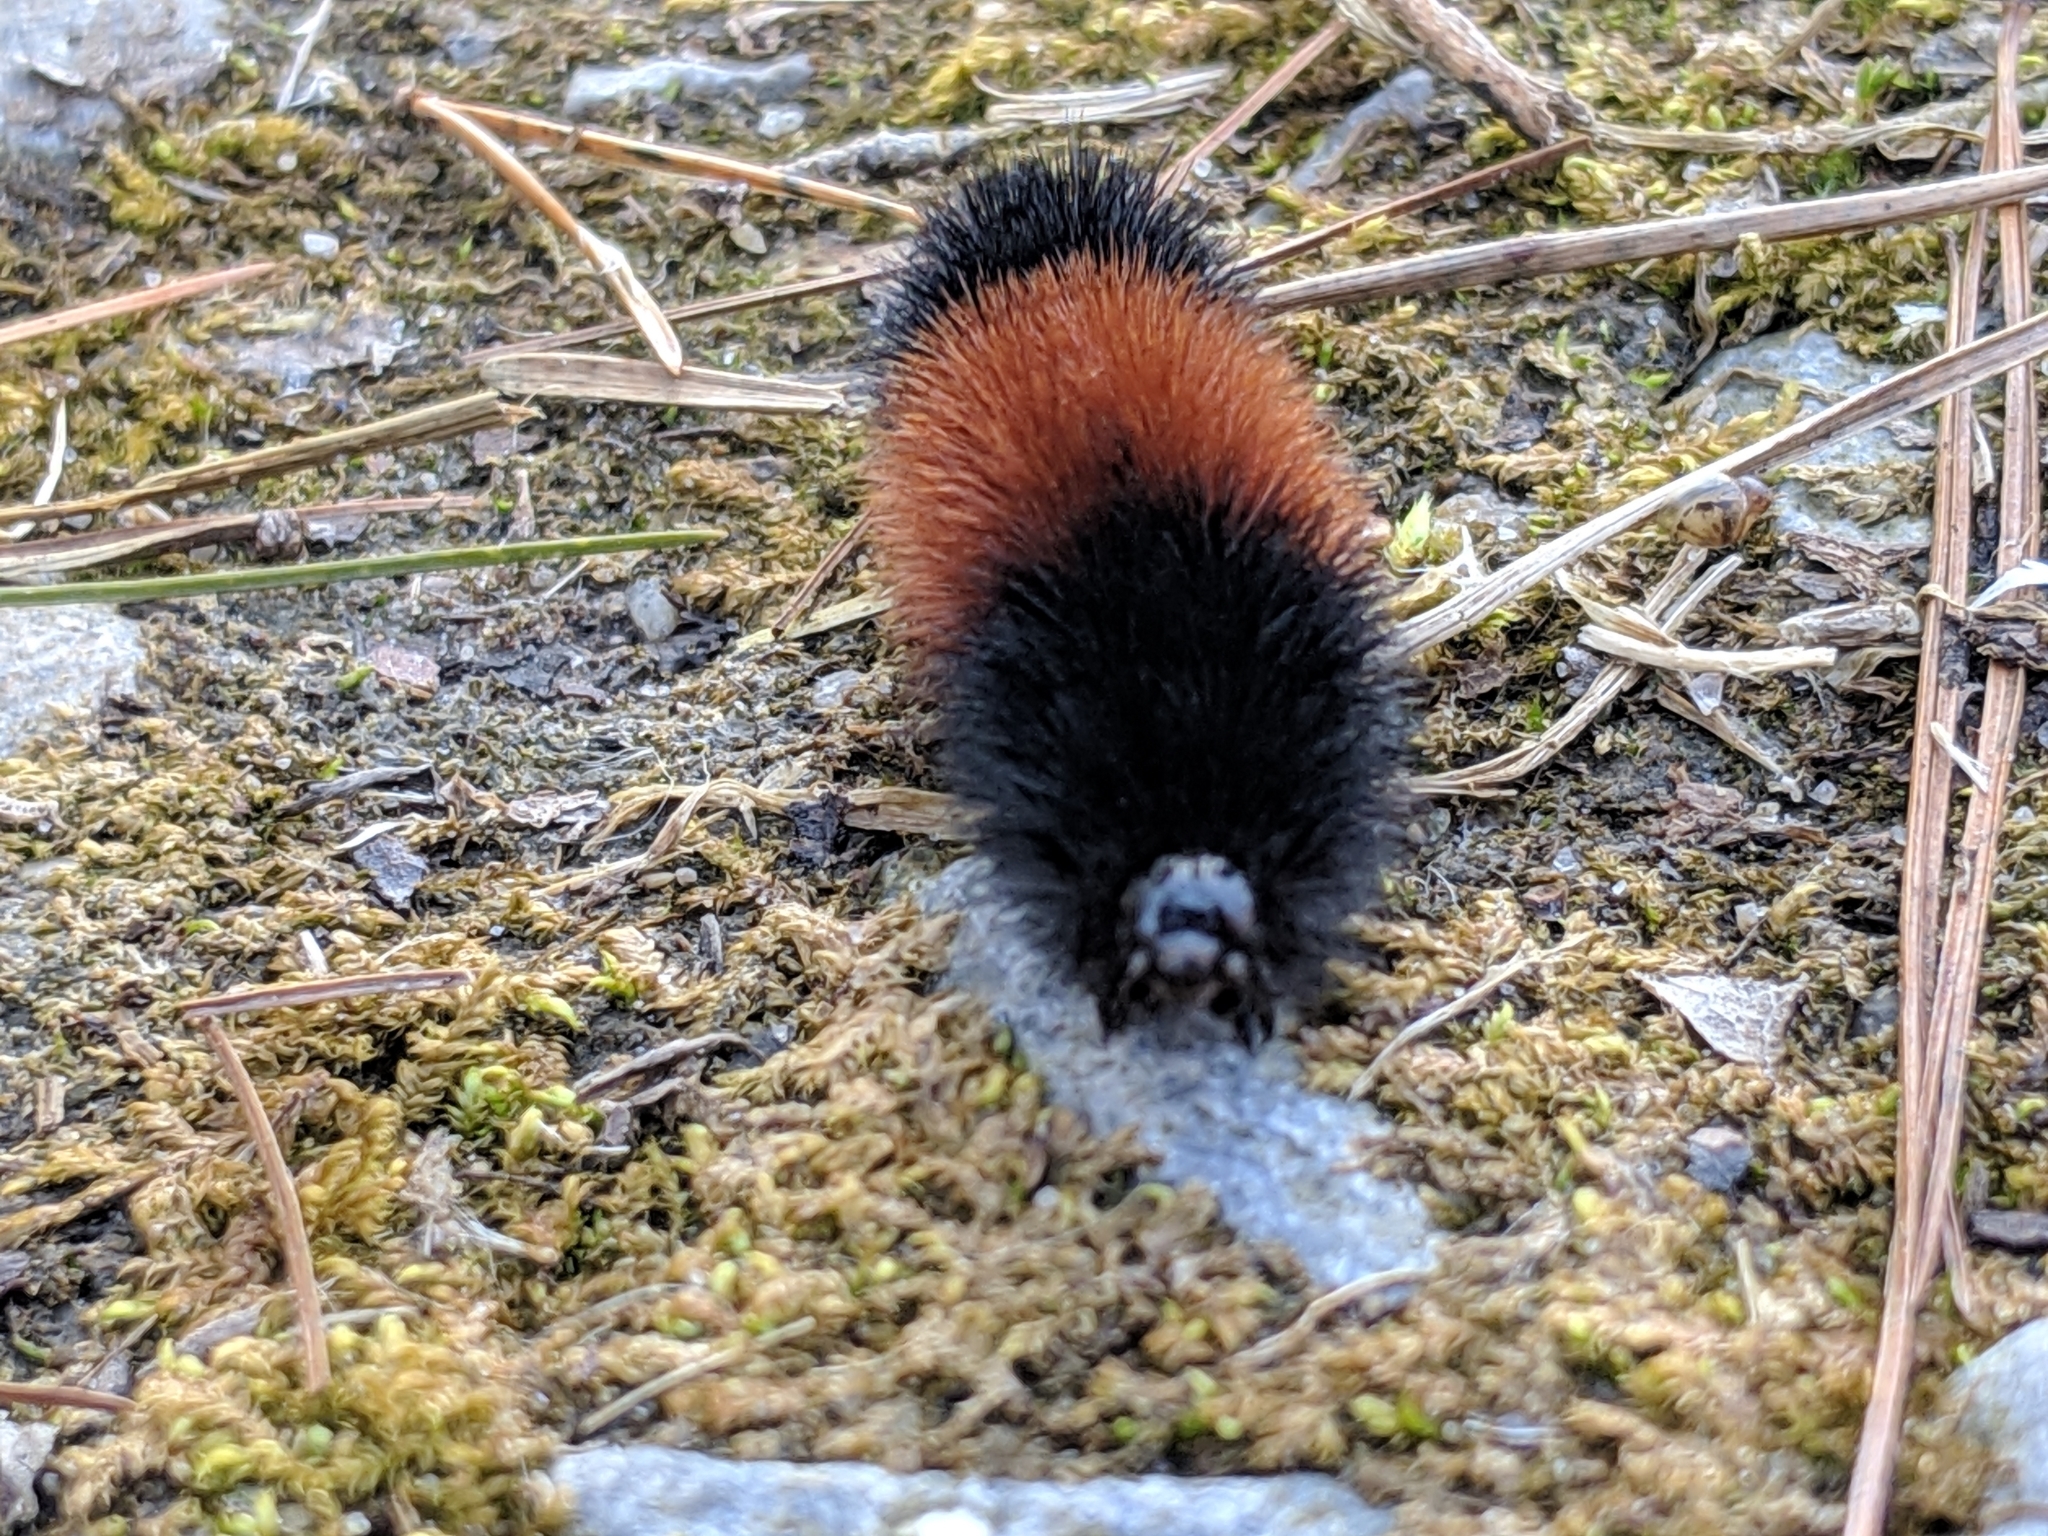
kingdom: Animalia
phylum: Arthropoda
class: Insecta
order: Lepidoptera
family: Erebidae
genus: Pyrrharctia
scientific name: Pyrrharctia isabella
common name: Isabella tiger moth
